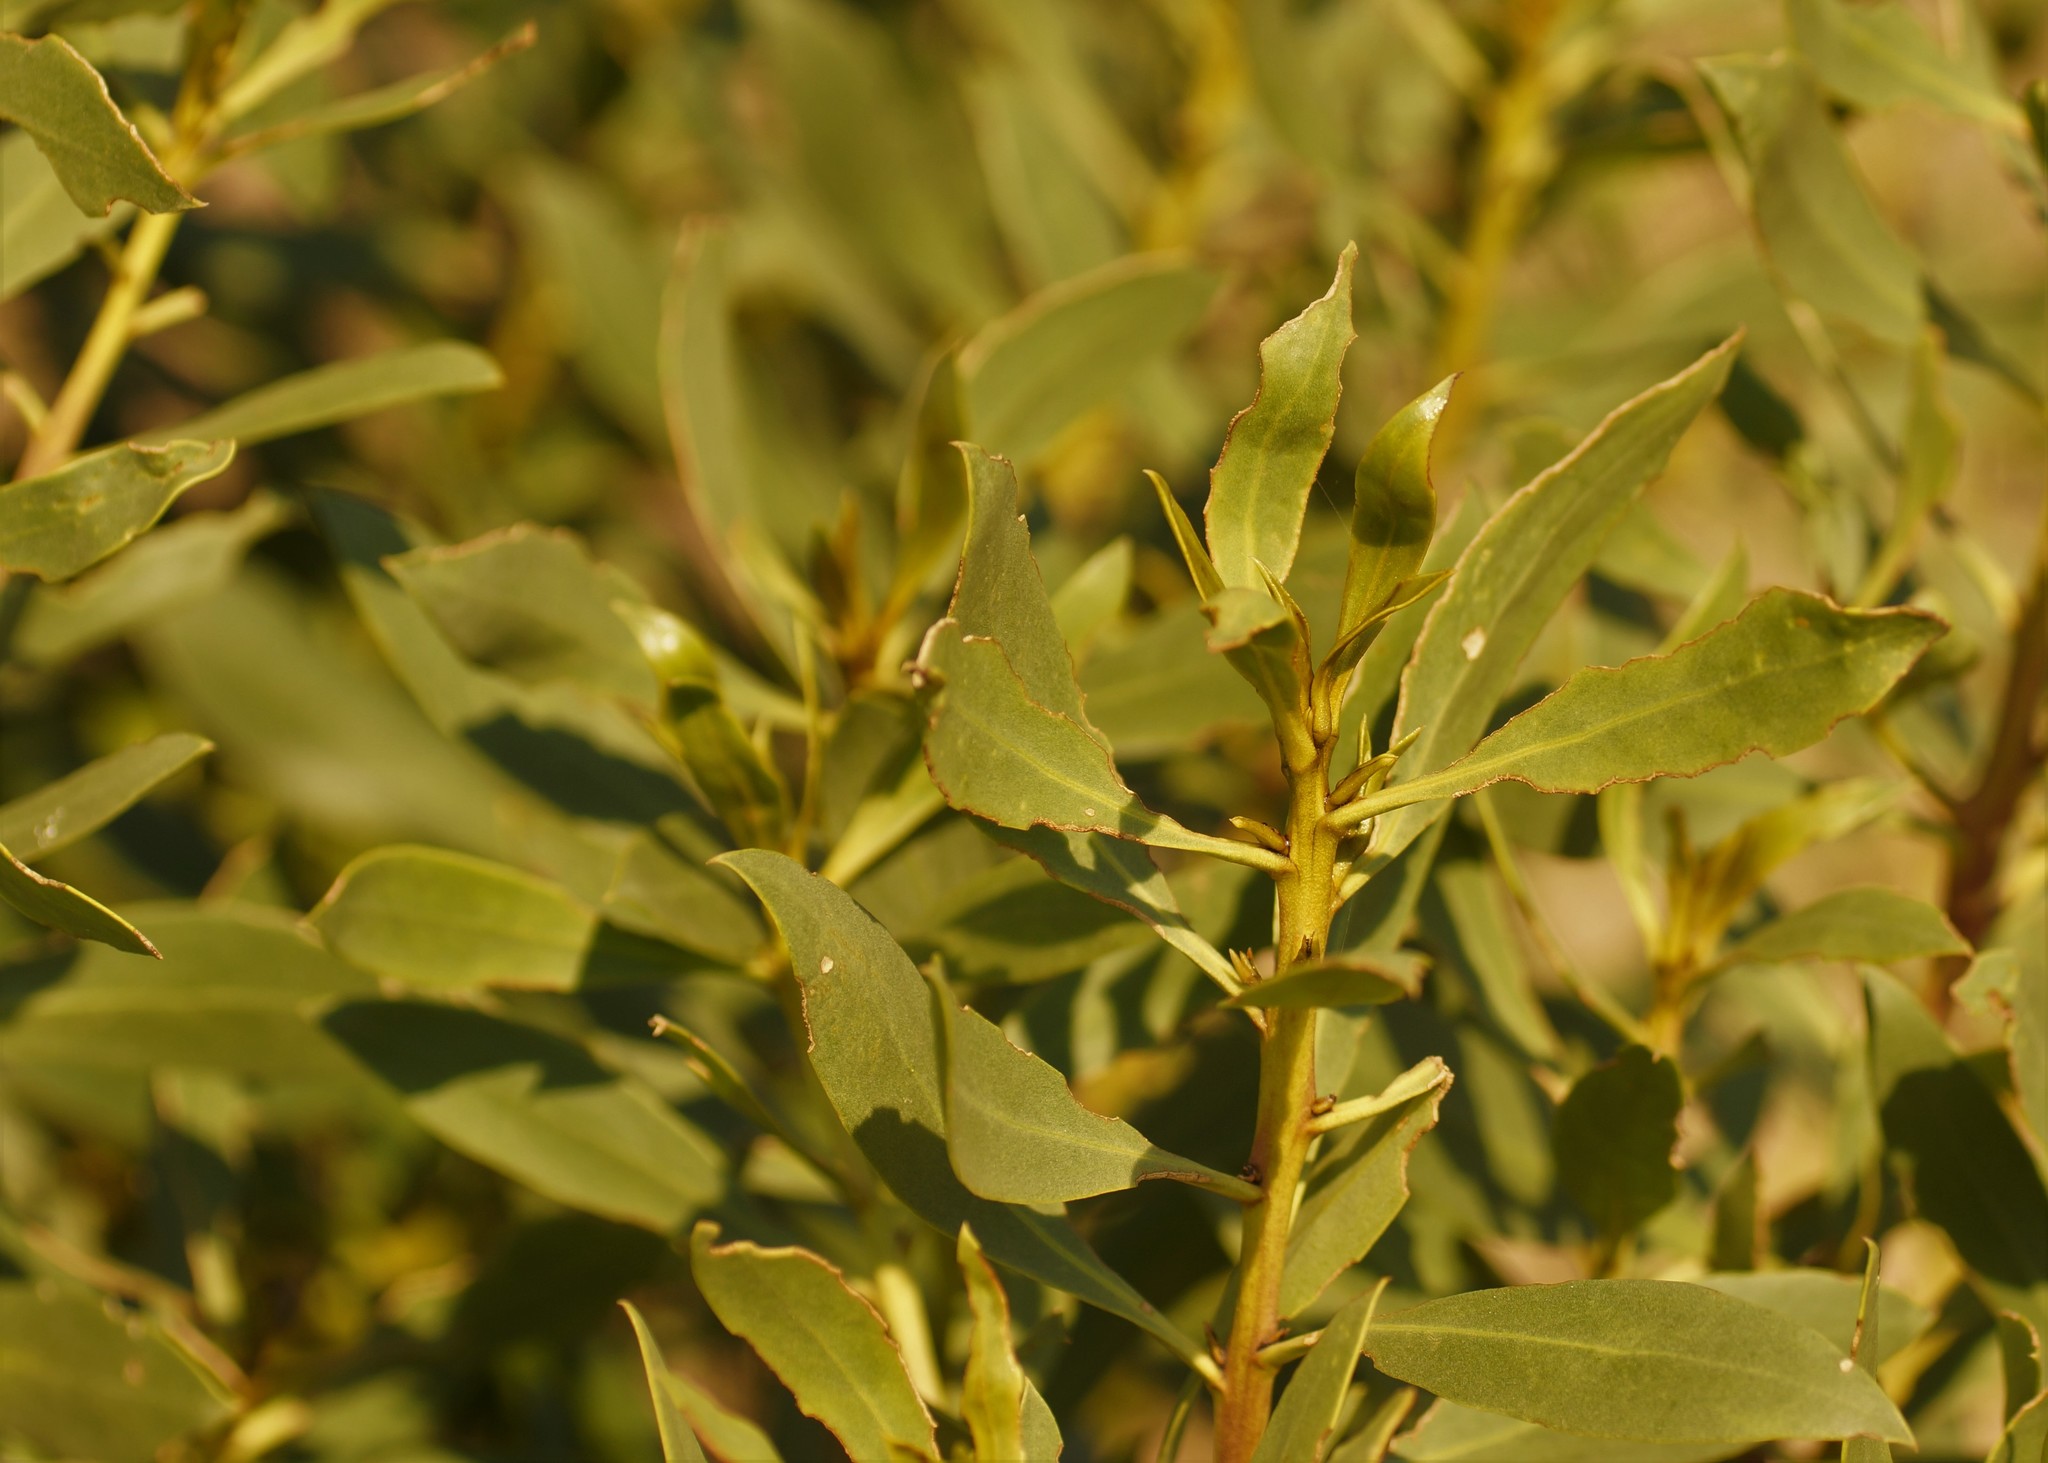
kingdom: Plantae
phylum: Tracheophyta
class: Magnoliopsida
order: Lamiales
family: Scrophulariaceae
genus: Myoporum
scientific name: Myoporum insulare
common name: Common boobialla
